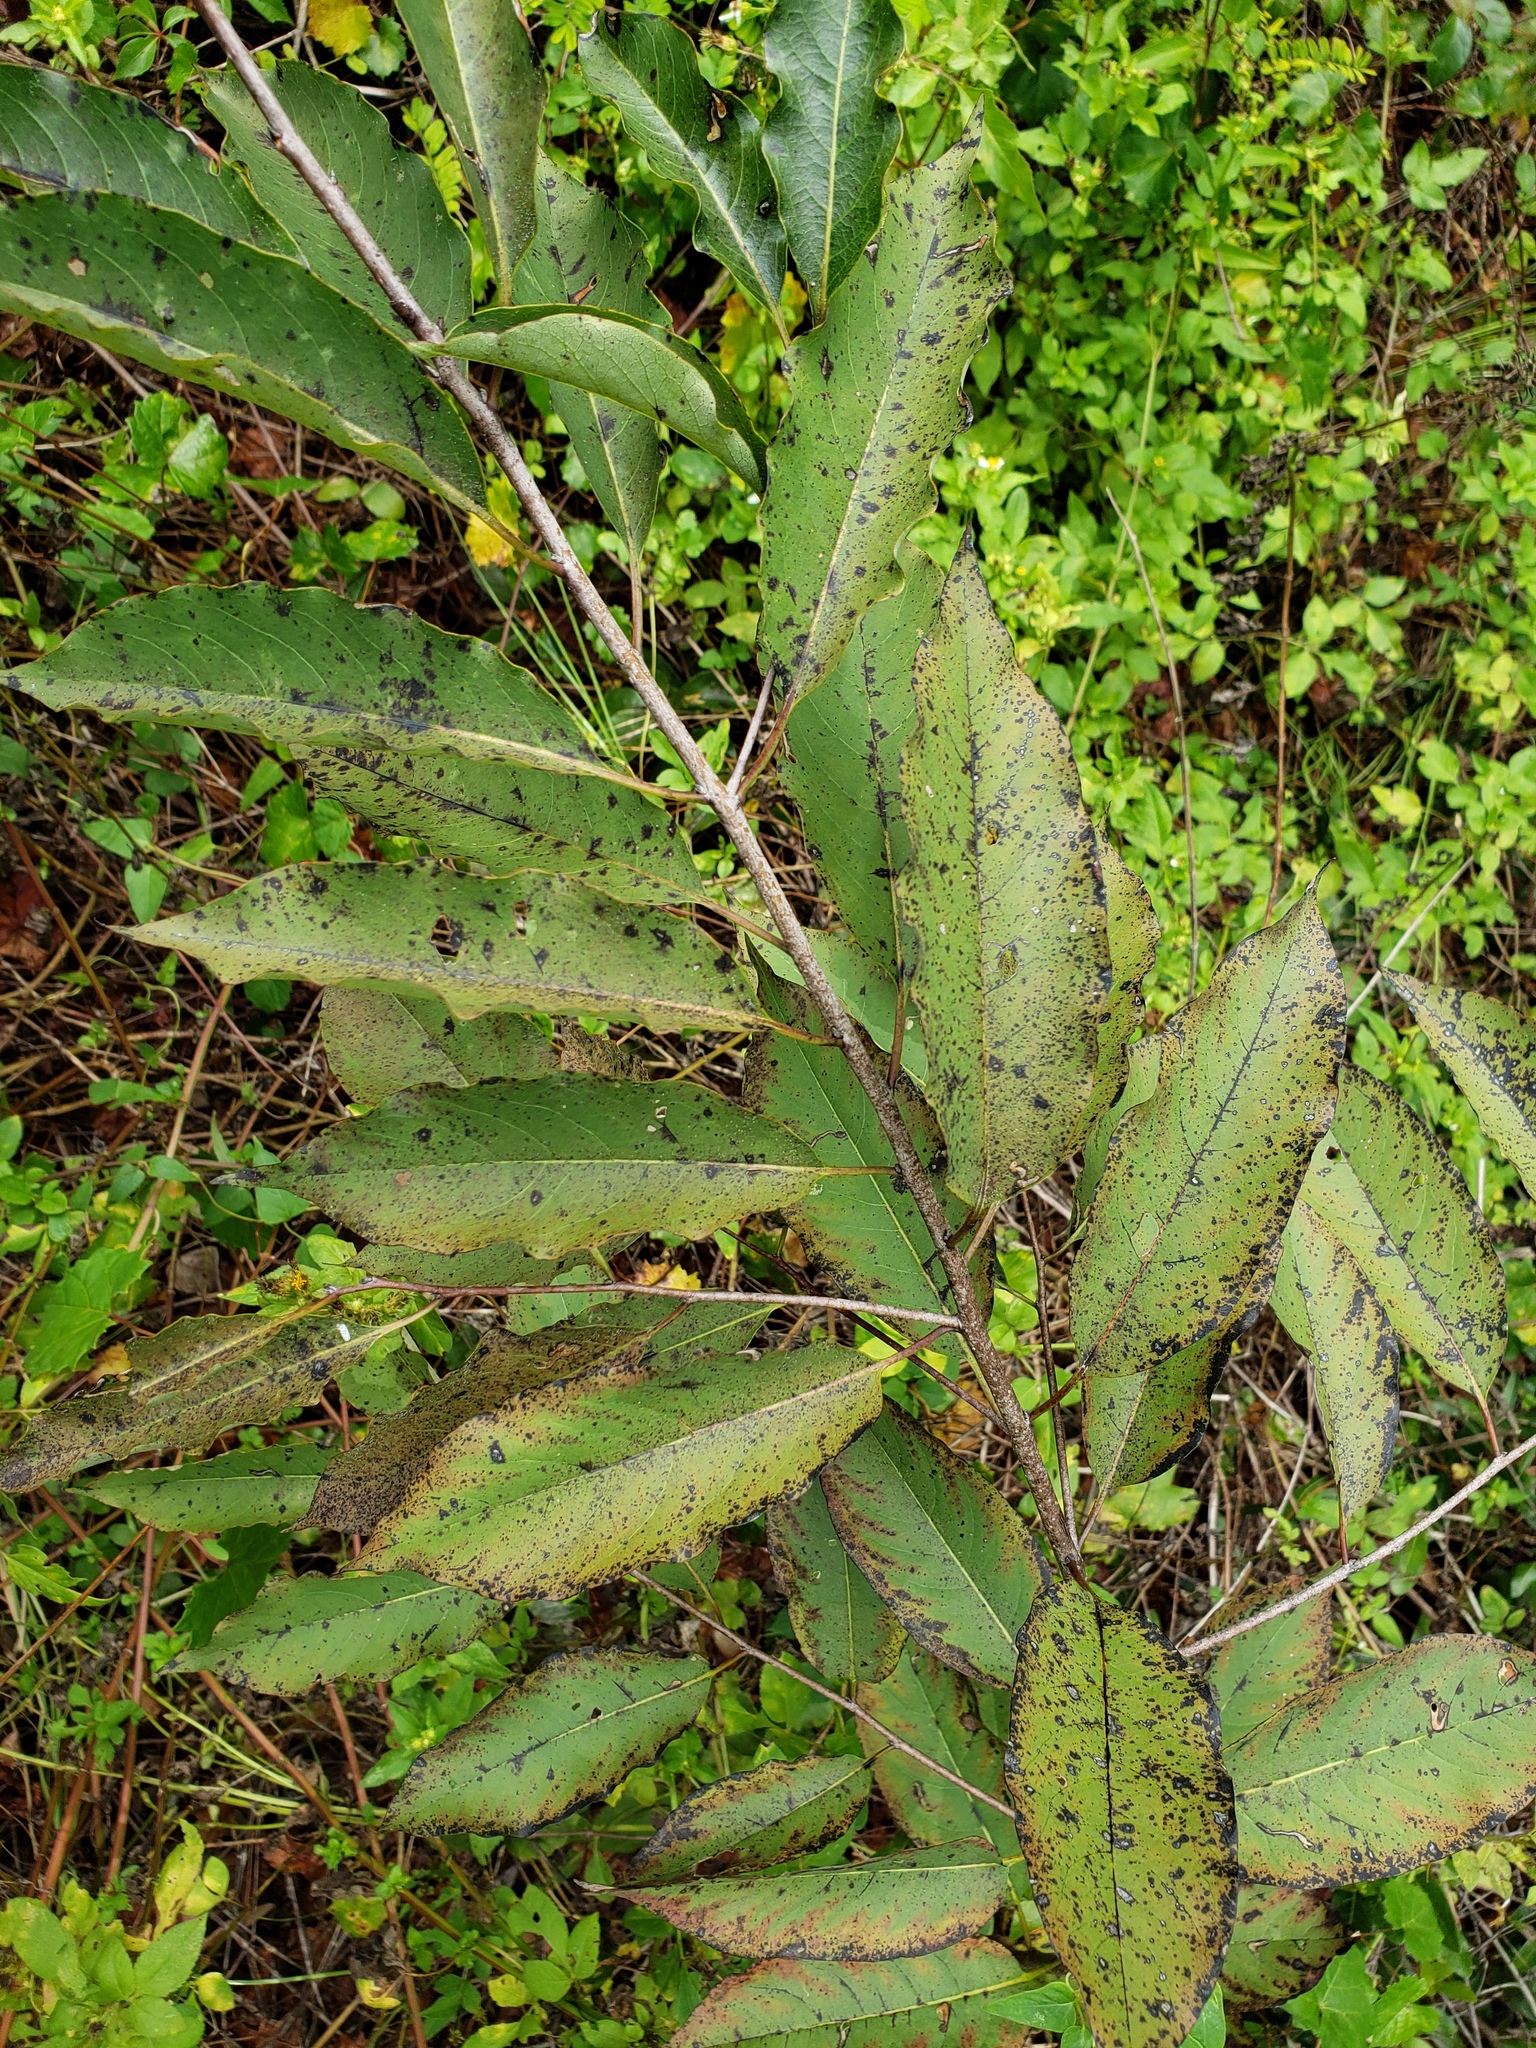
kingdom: Plantae
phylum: Tracheophyta
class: Magnoliopsida
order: Ericales
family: Ebenaceae
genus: Diospyros
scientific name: Diospyros virginiana
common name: Persimmon
